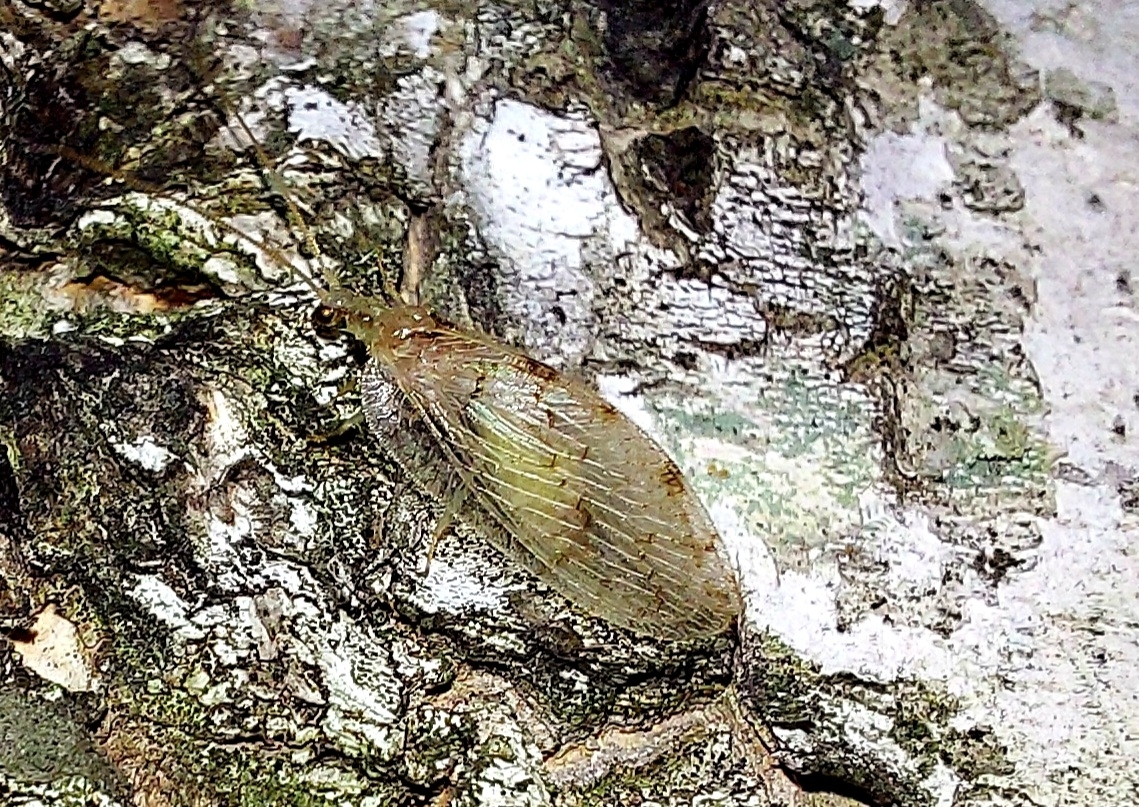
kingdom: Animalia
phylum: Arthropoda
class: Insecta
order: Neuroptera
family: Hemerobiidae
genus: Hemerobius
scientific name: Hemerobius marginatus
